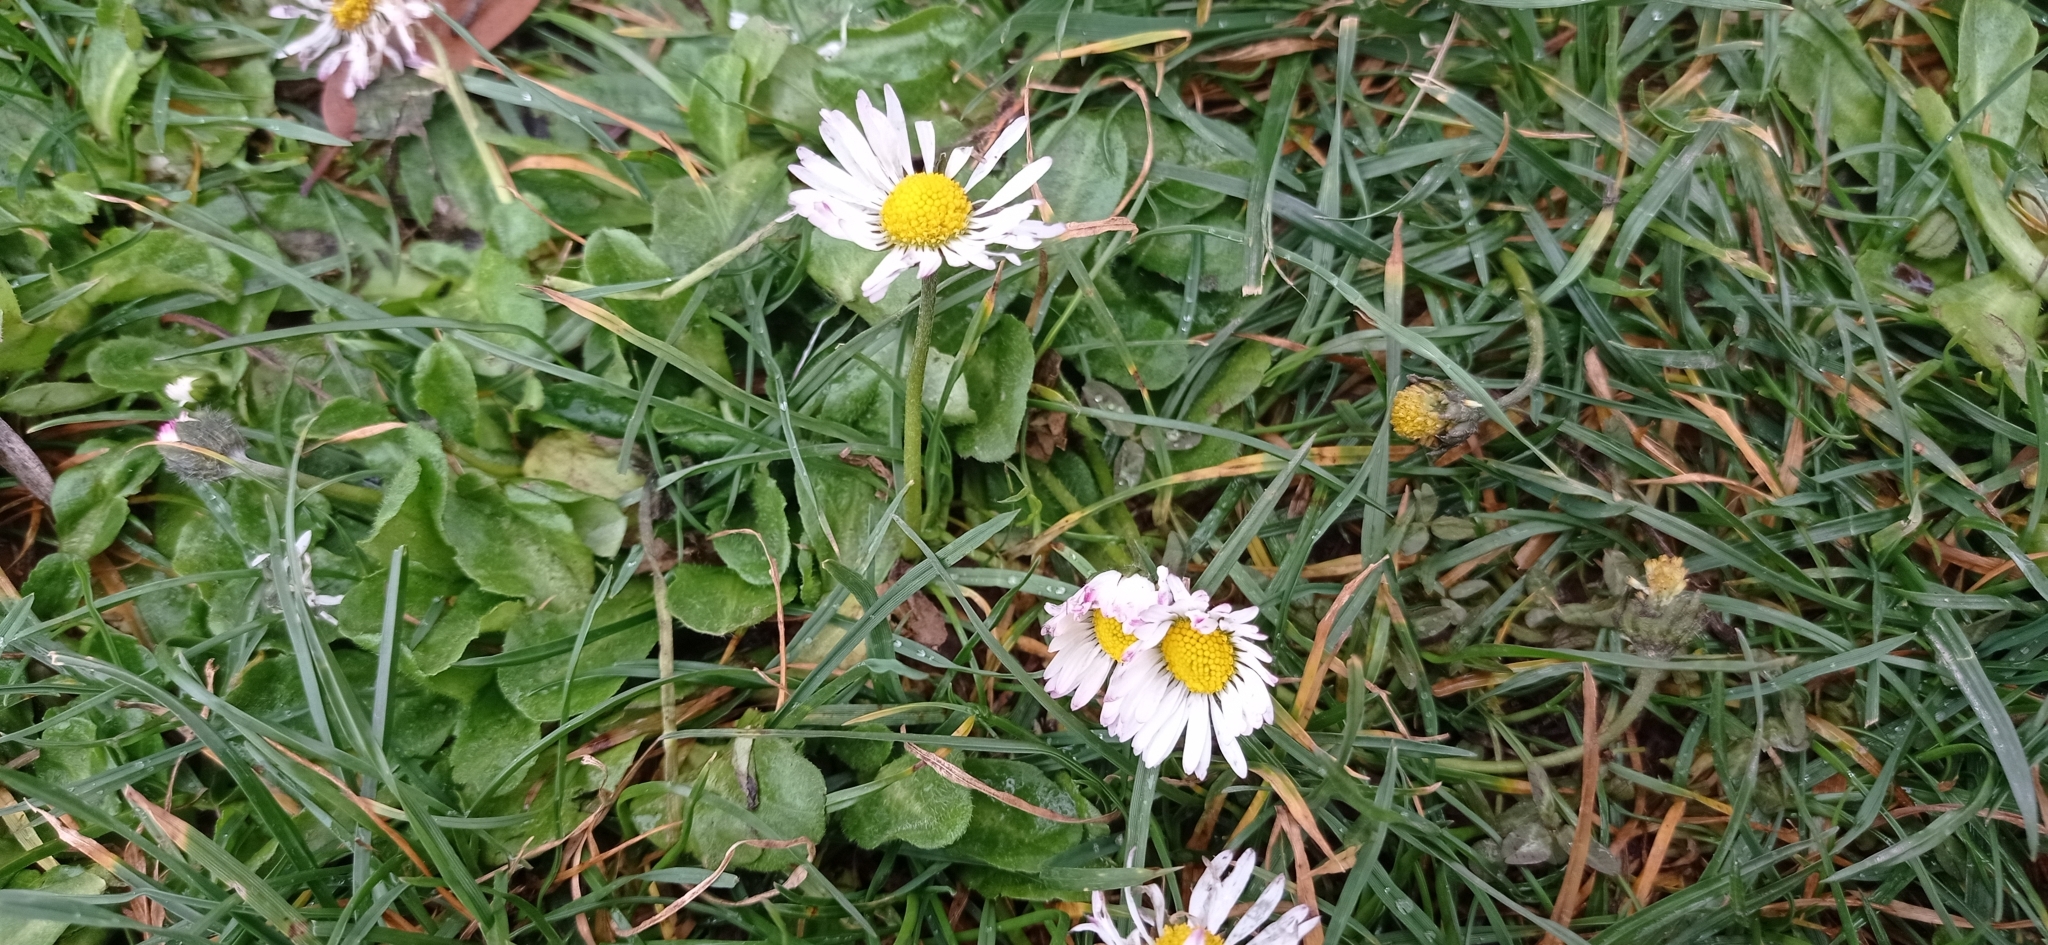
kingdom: Plantae
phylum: Tracheophyta
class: Magnoliopsida
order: Asterales
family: Asteraceae
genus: Bellis
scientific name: Bellis perennis
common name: Lawndaisy
